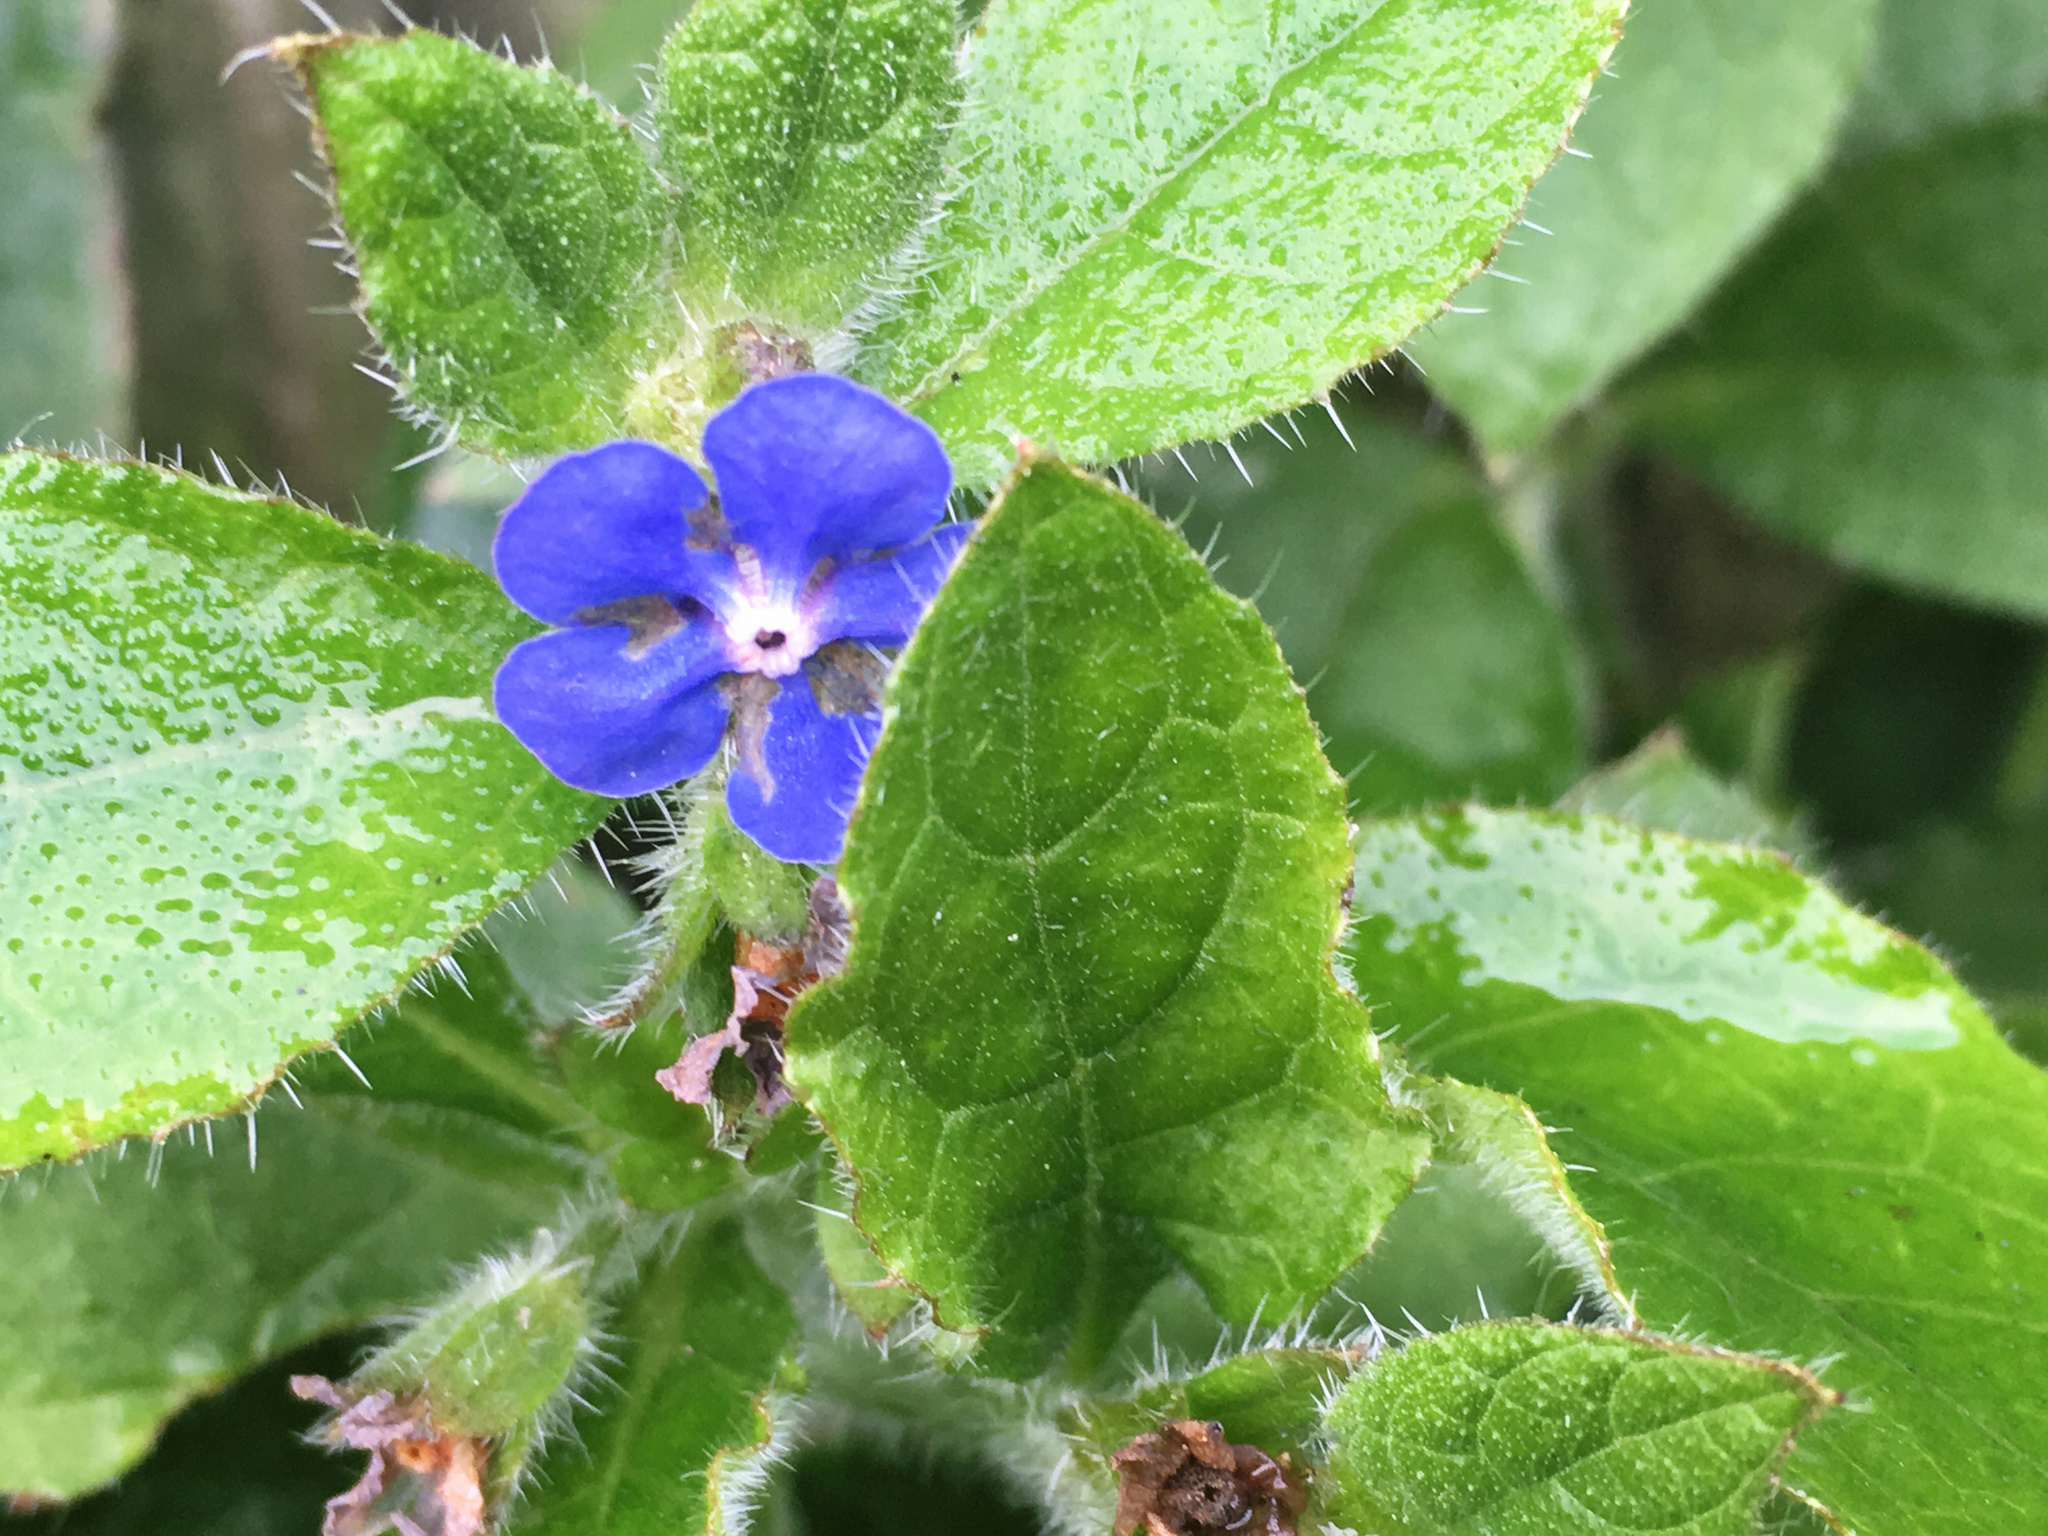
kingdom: Plantae
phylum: Tracheophyta
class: Magnoliopsida
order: Boraginales
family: Boraginaceae
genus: Pentaglottis
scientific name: Pentaglottis sempervirens
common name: Green alkanet
